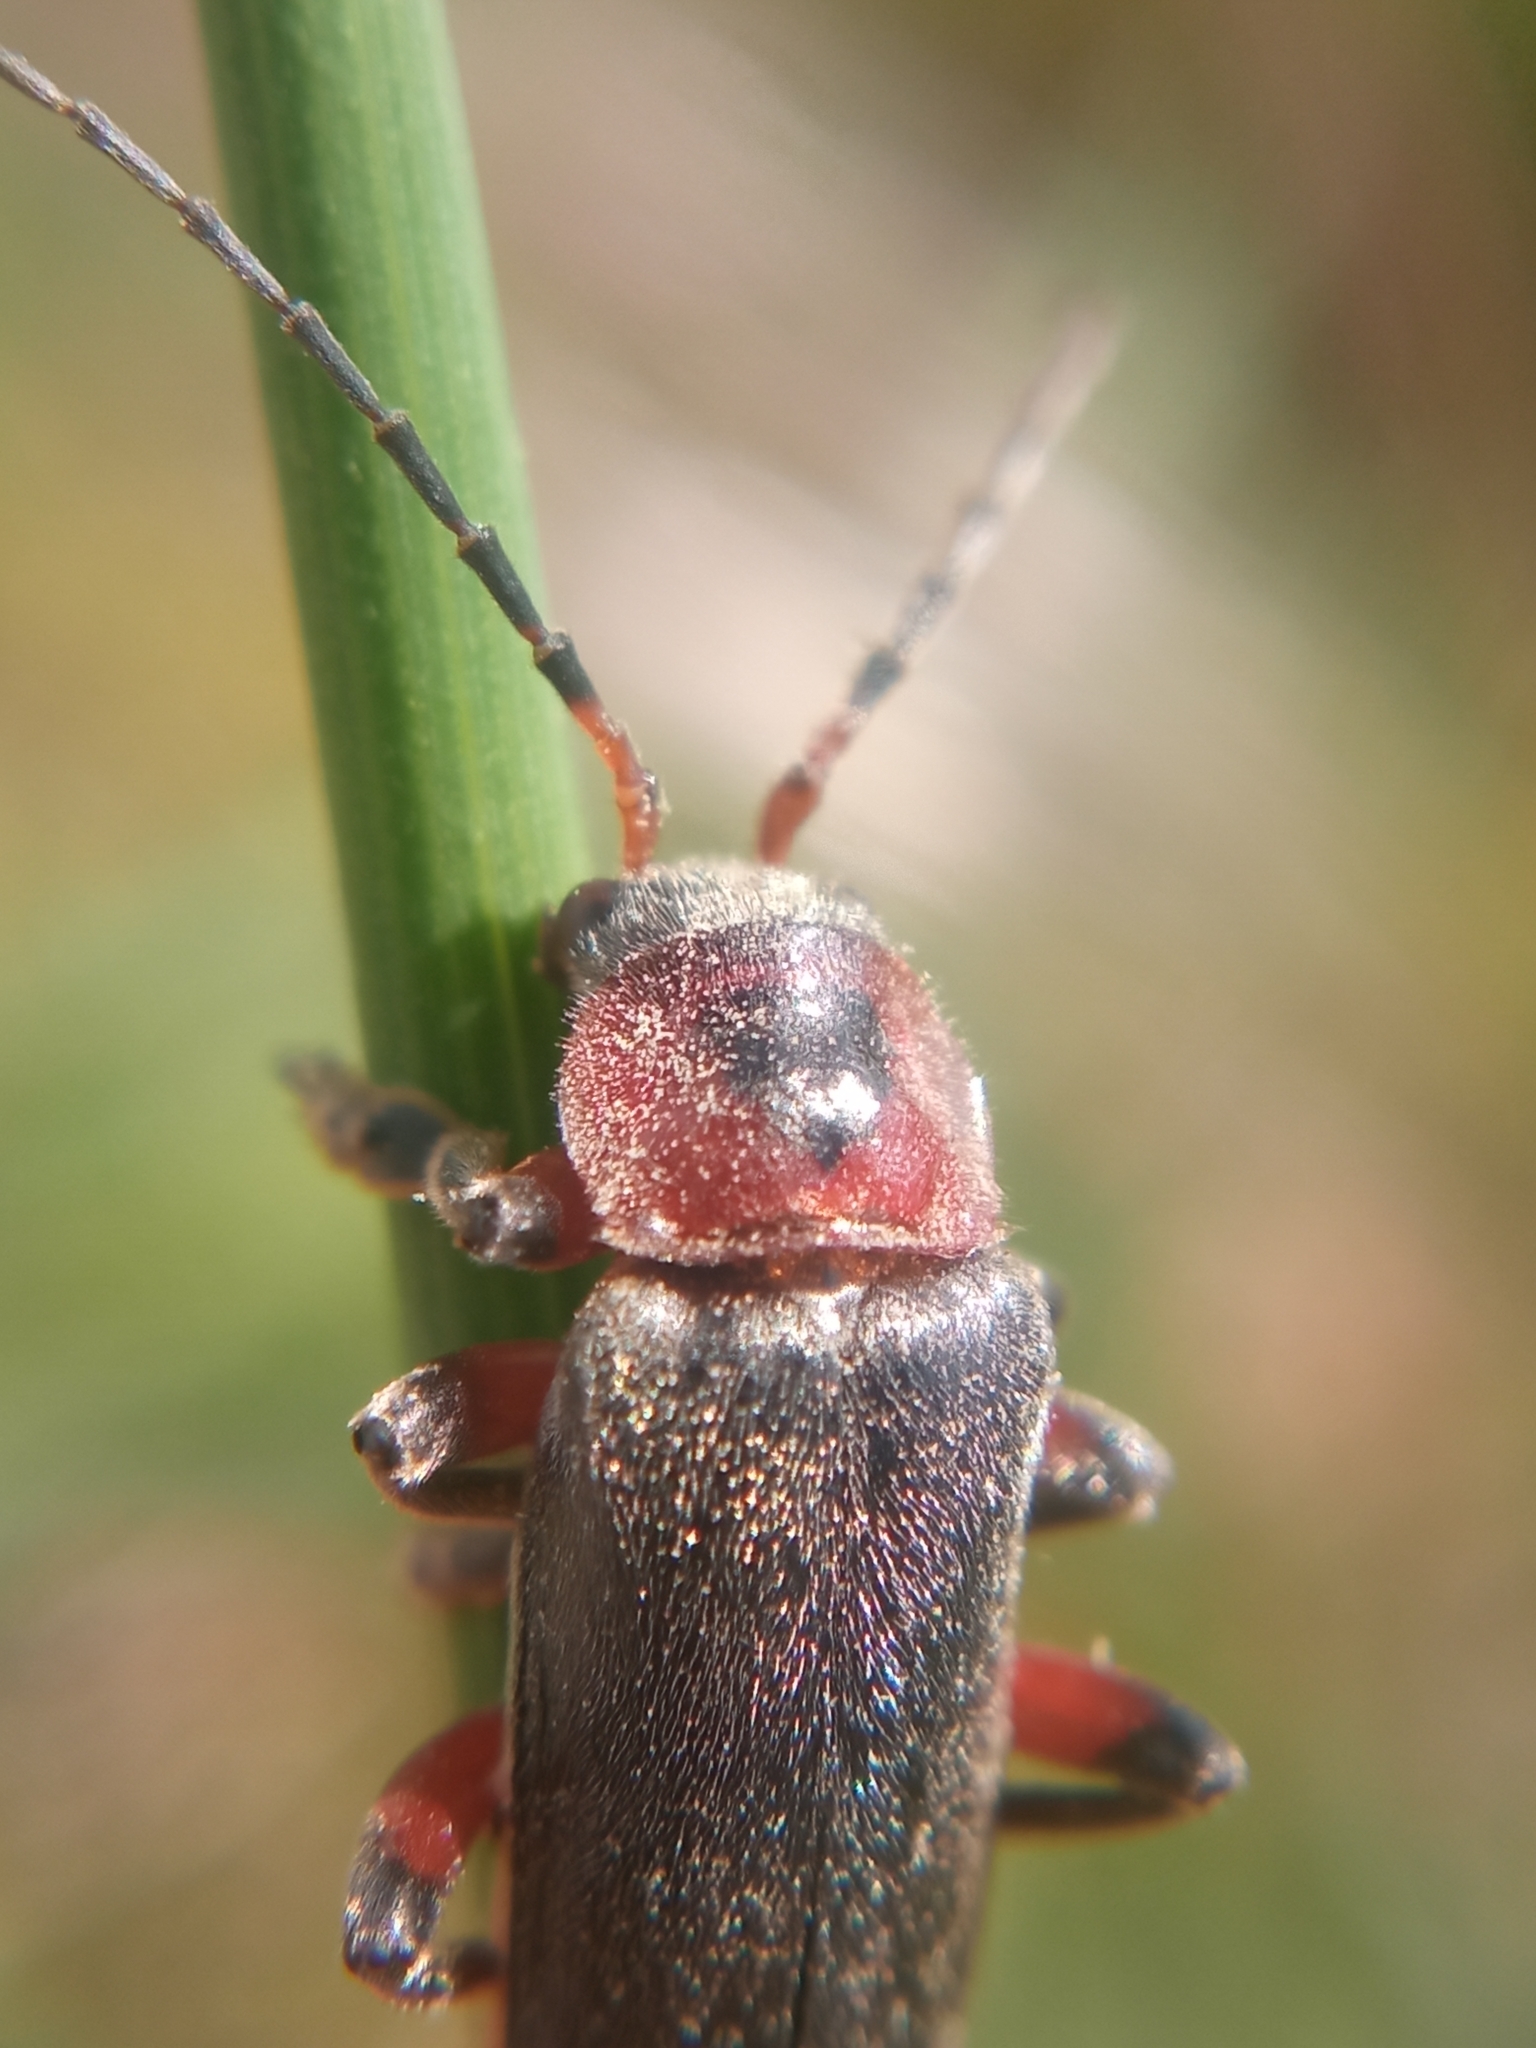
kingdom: Animalia
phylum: Arthropoda
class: Insecta
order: Coleoptera
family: Cantharidae
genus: Cantharis
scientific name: Cantharis rustica
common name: Soldier beetle
